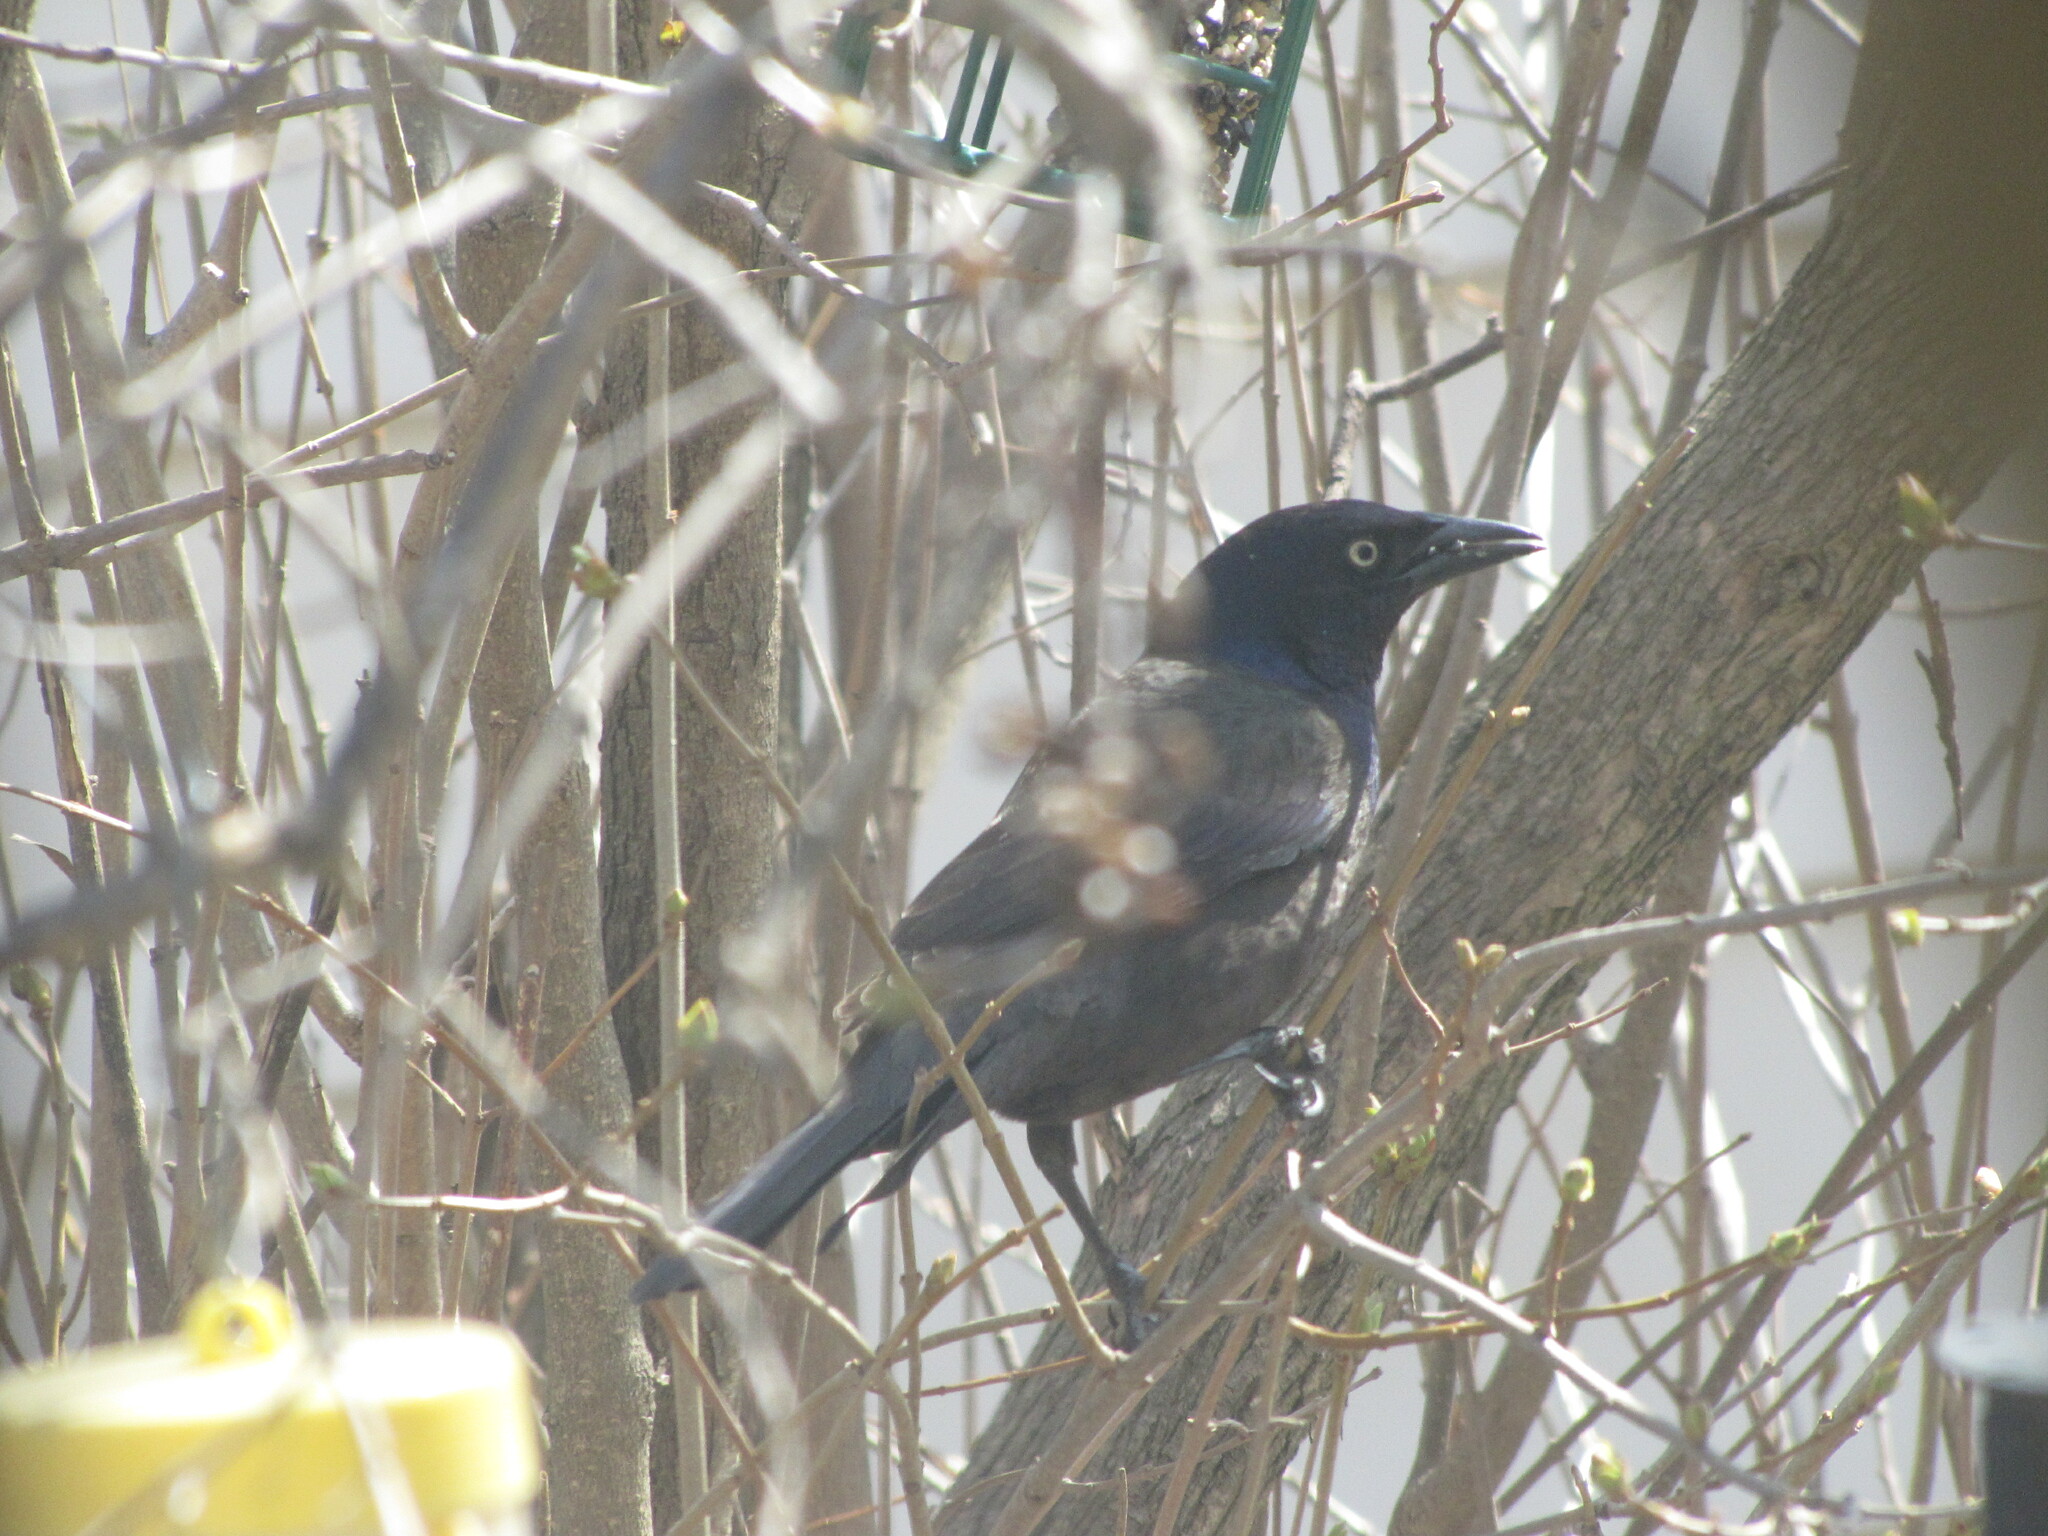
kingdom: Animalia
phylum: Chordata
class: Aves
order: Passeriformes
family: Icteridae
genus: Quiscalus
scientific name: Quiscalus quiscula
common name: Common grackle
